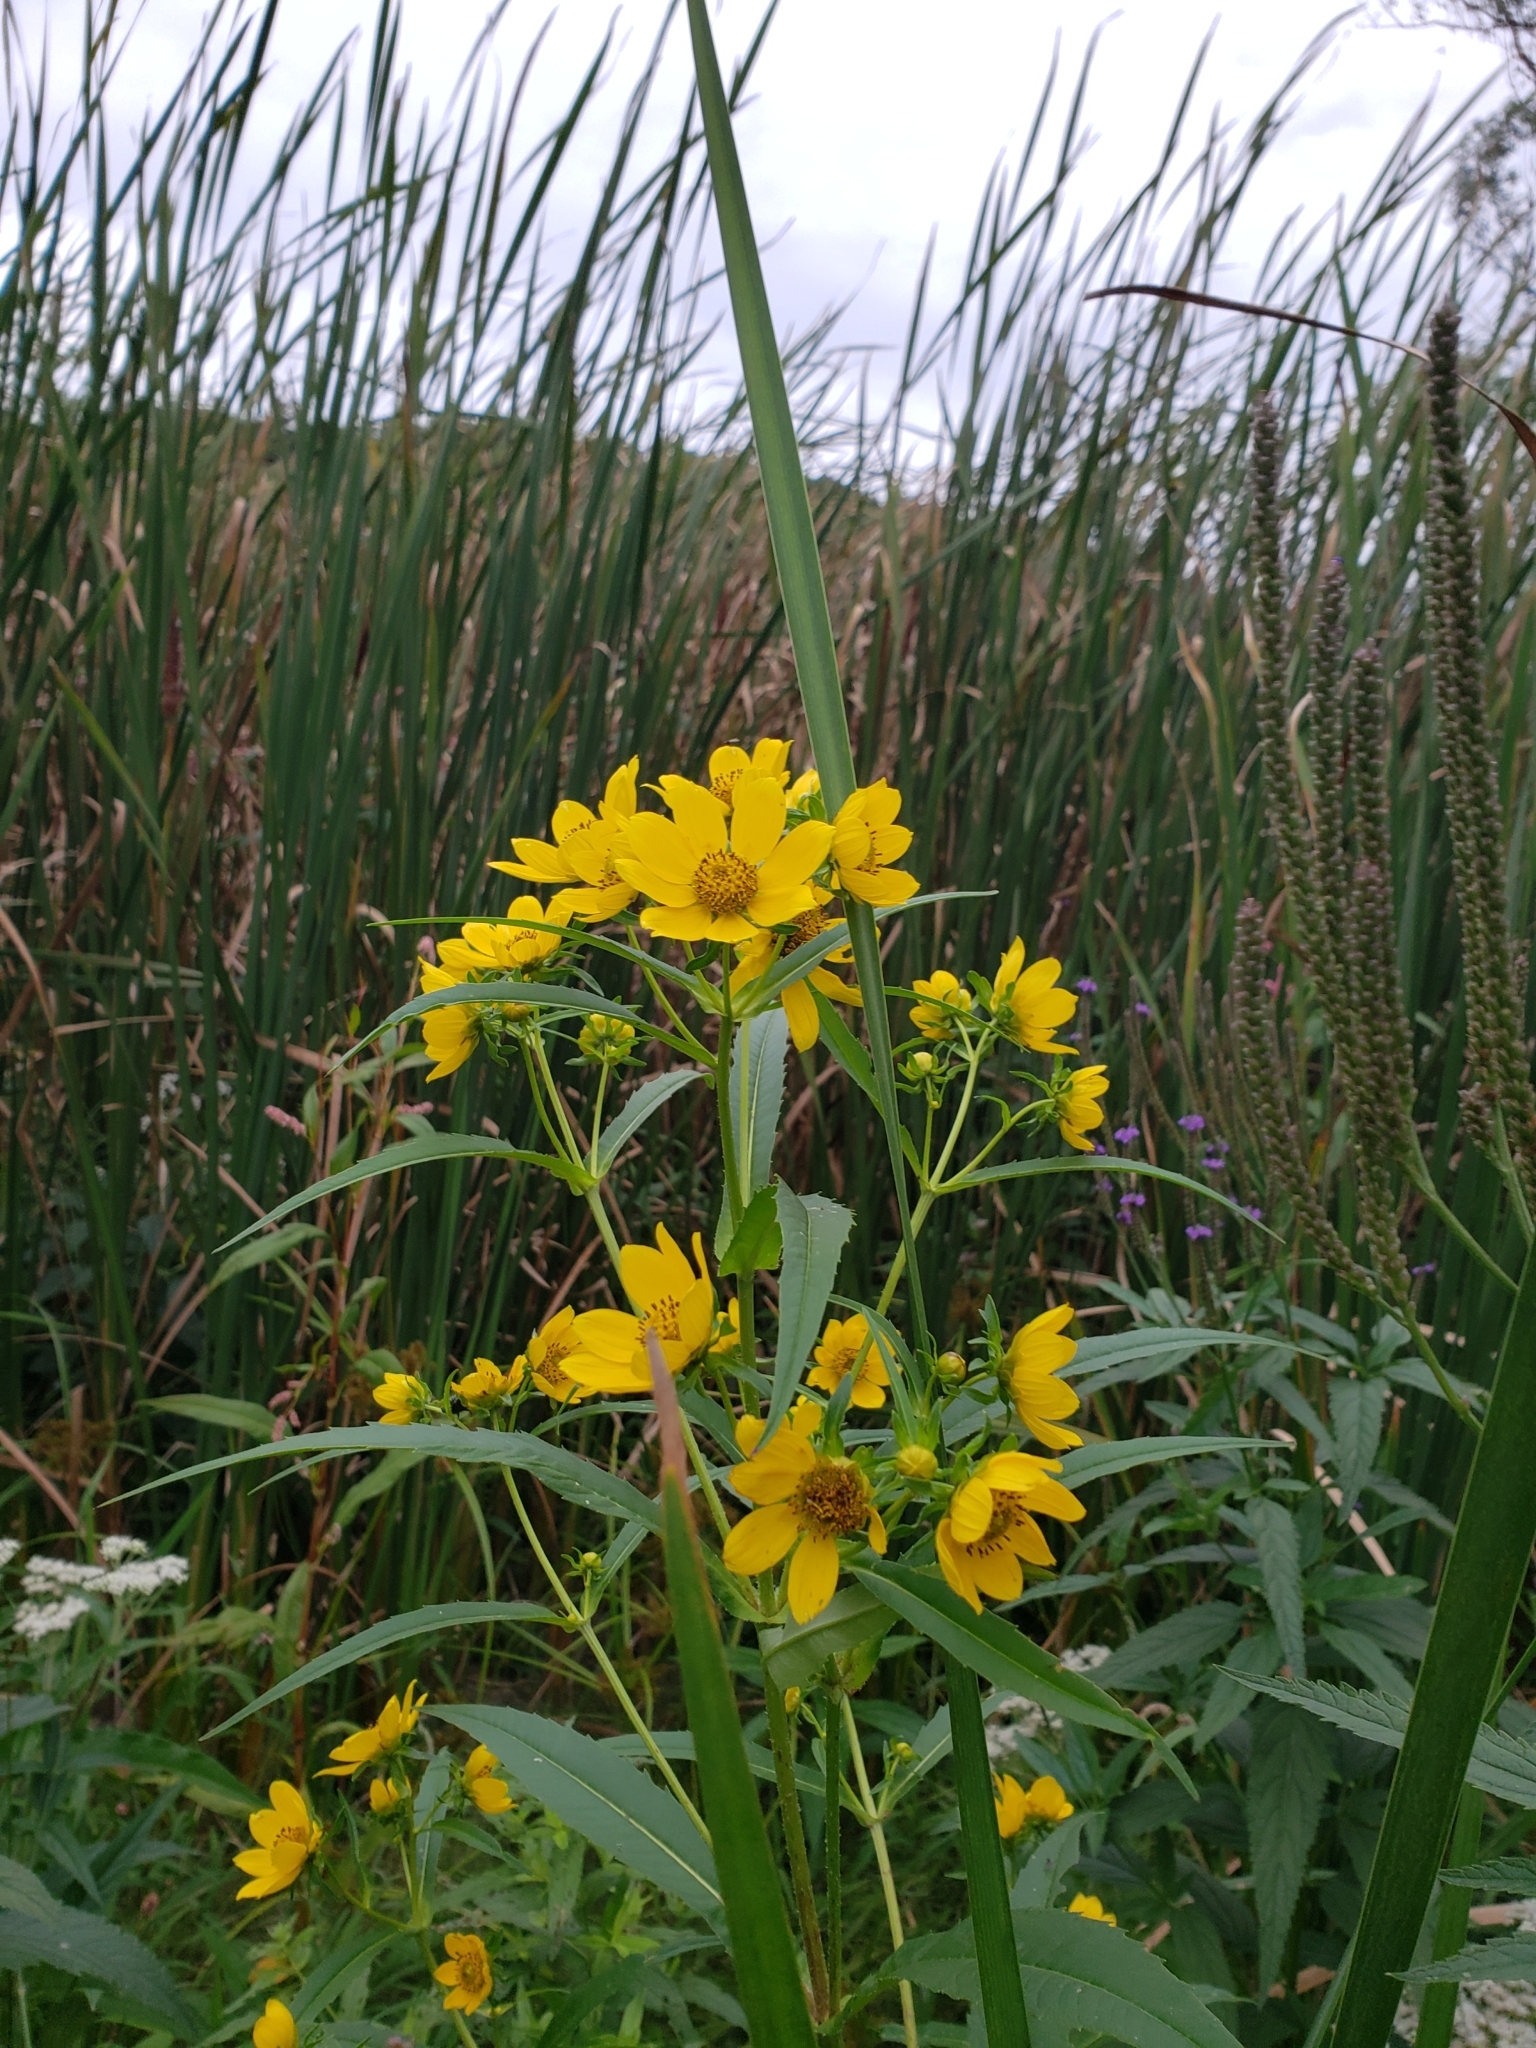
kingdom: Plantae
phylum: Tracheophyta
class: Magnoliopsida
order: Asterales
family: Asteraceae
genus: Bidens
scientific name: Bidens cernua
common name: Nodding bur-marigold
